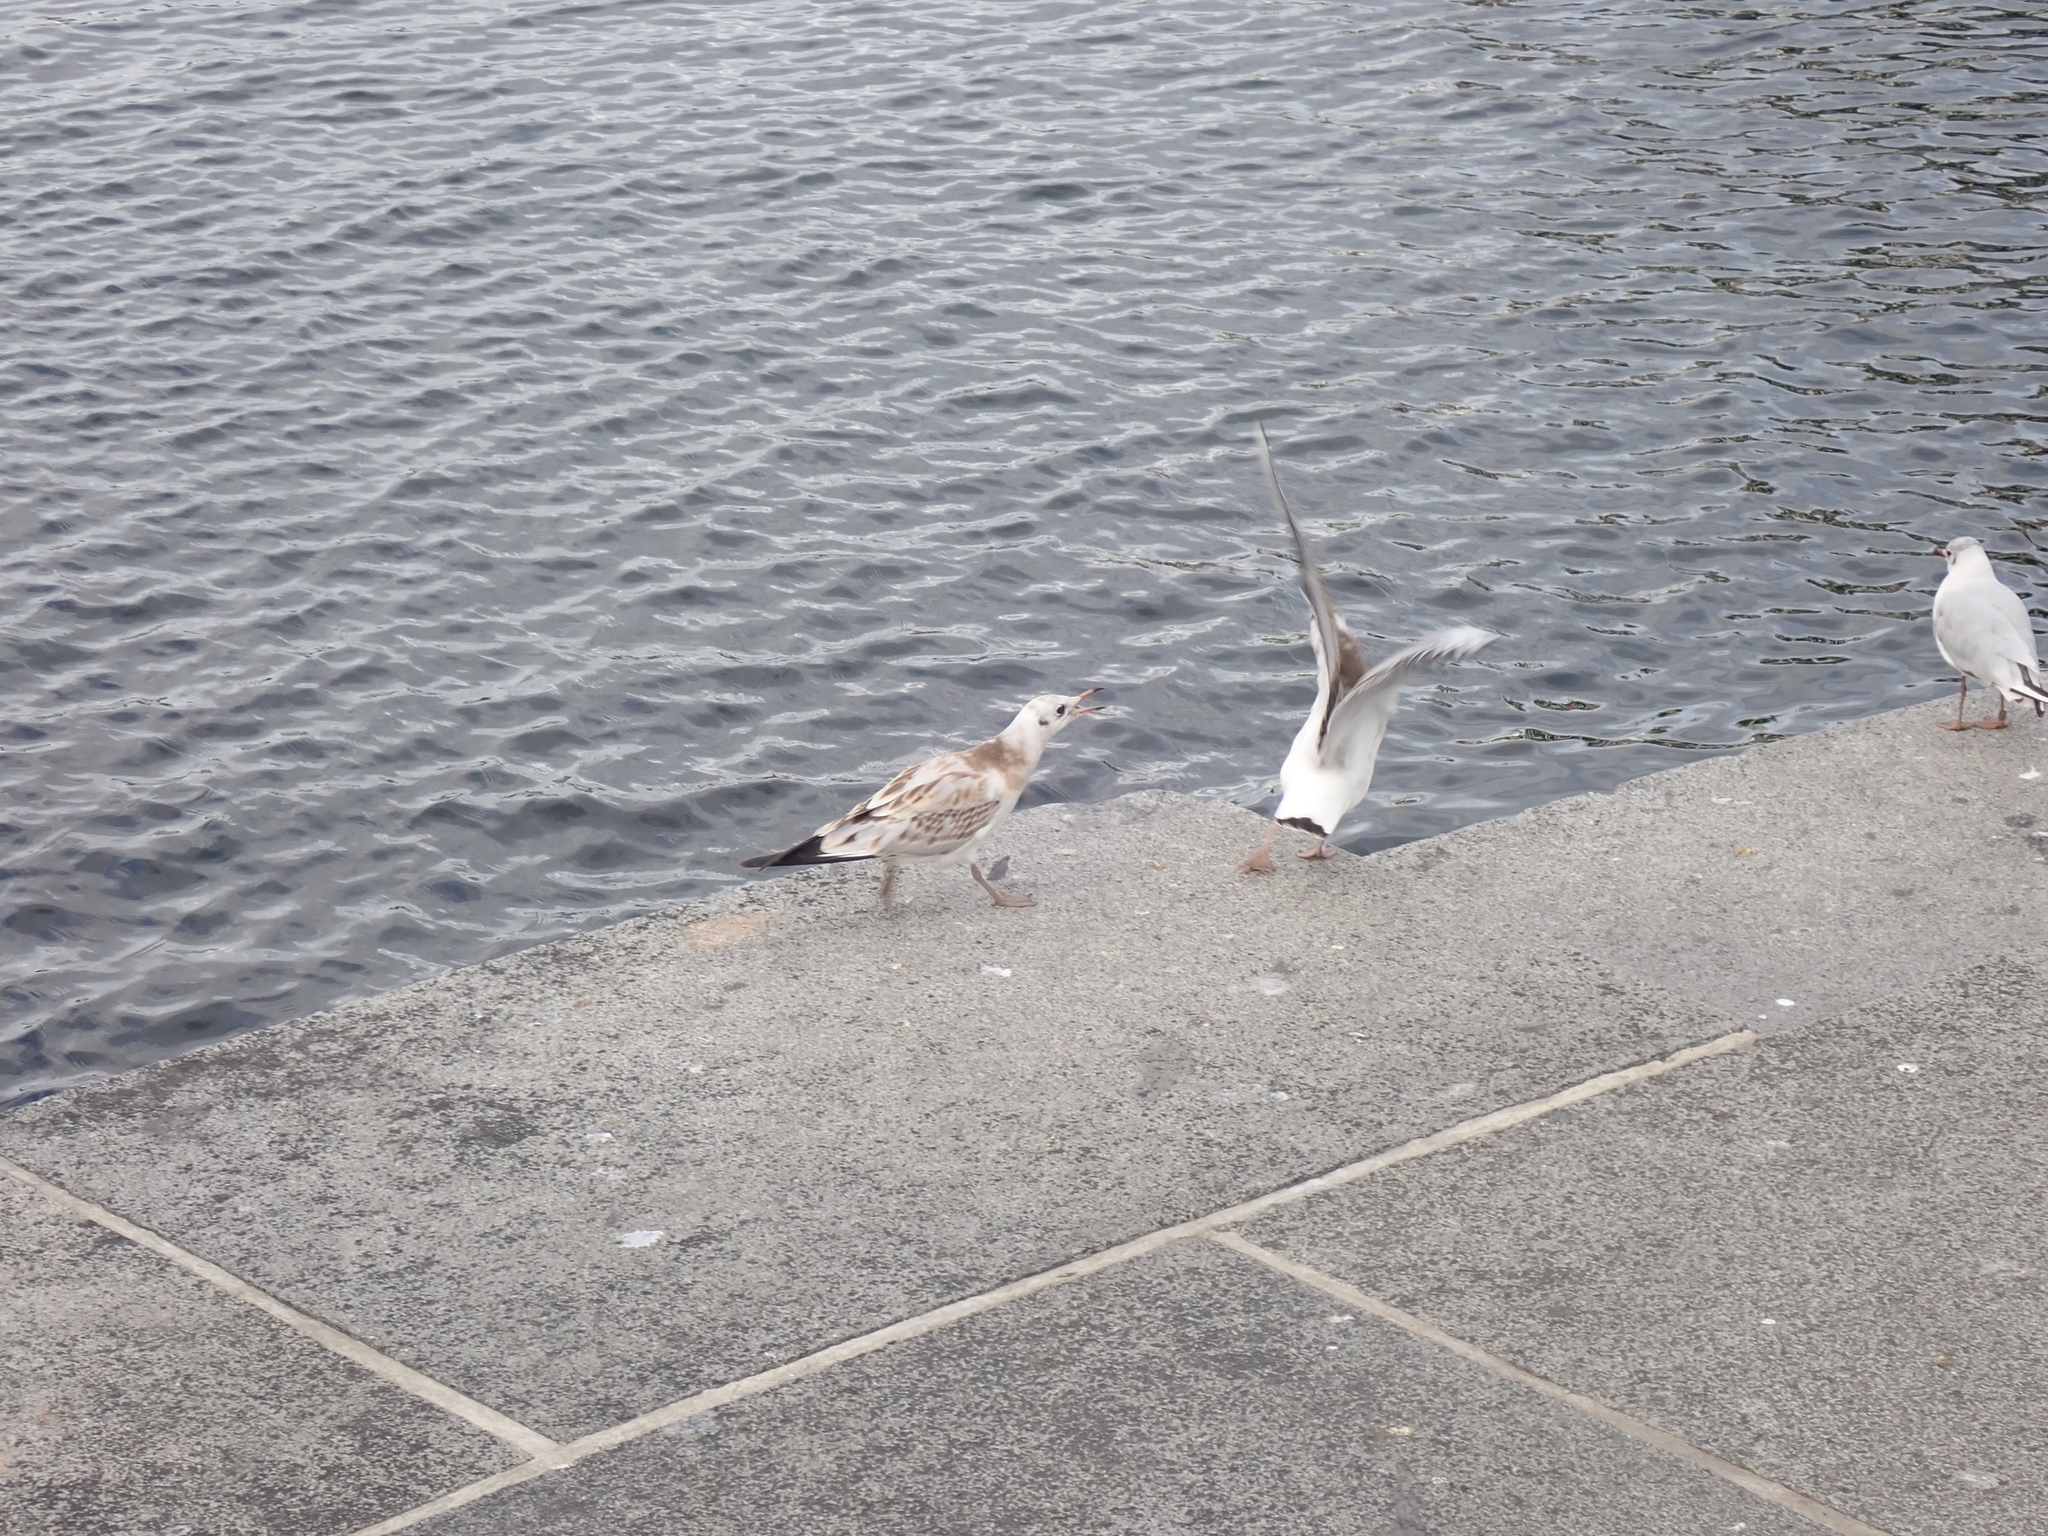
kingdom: Animalia
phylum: Chordata
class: Aves
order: Charadriiformes
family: Laridae
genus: Chroicocephalus
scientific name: Chroicocephalus ridibundus
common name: Black-headed gull
